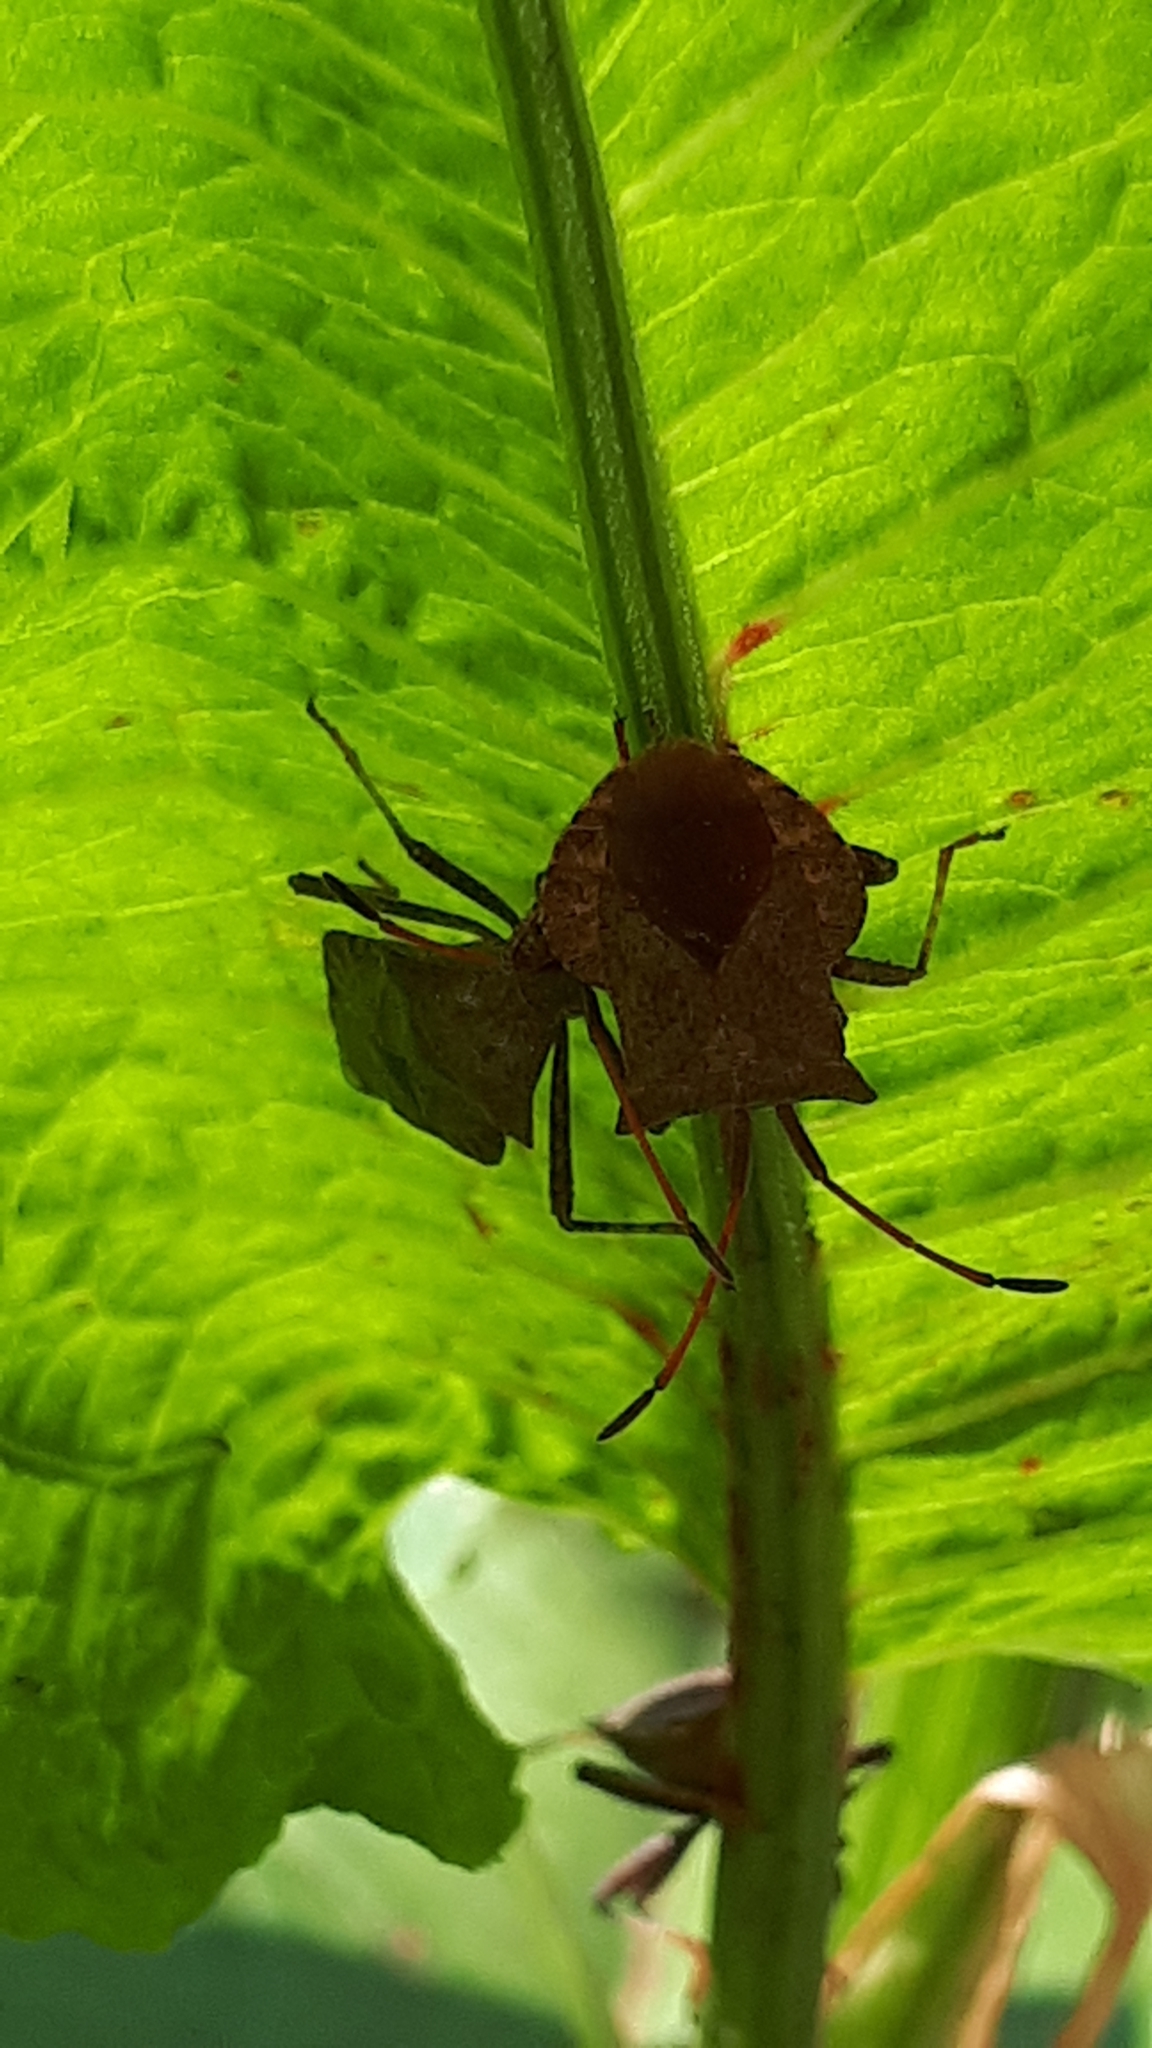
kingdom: Animalia
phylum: Arthropoda
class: Insecta
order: Hemiptera
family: Coreidae
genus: Coreus
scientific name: Coreus marginatus
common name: Dock bug
